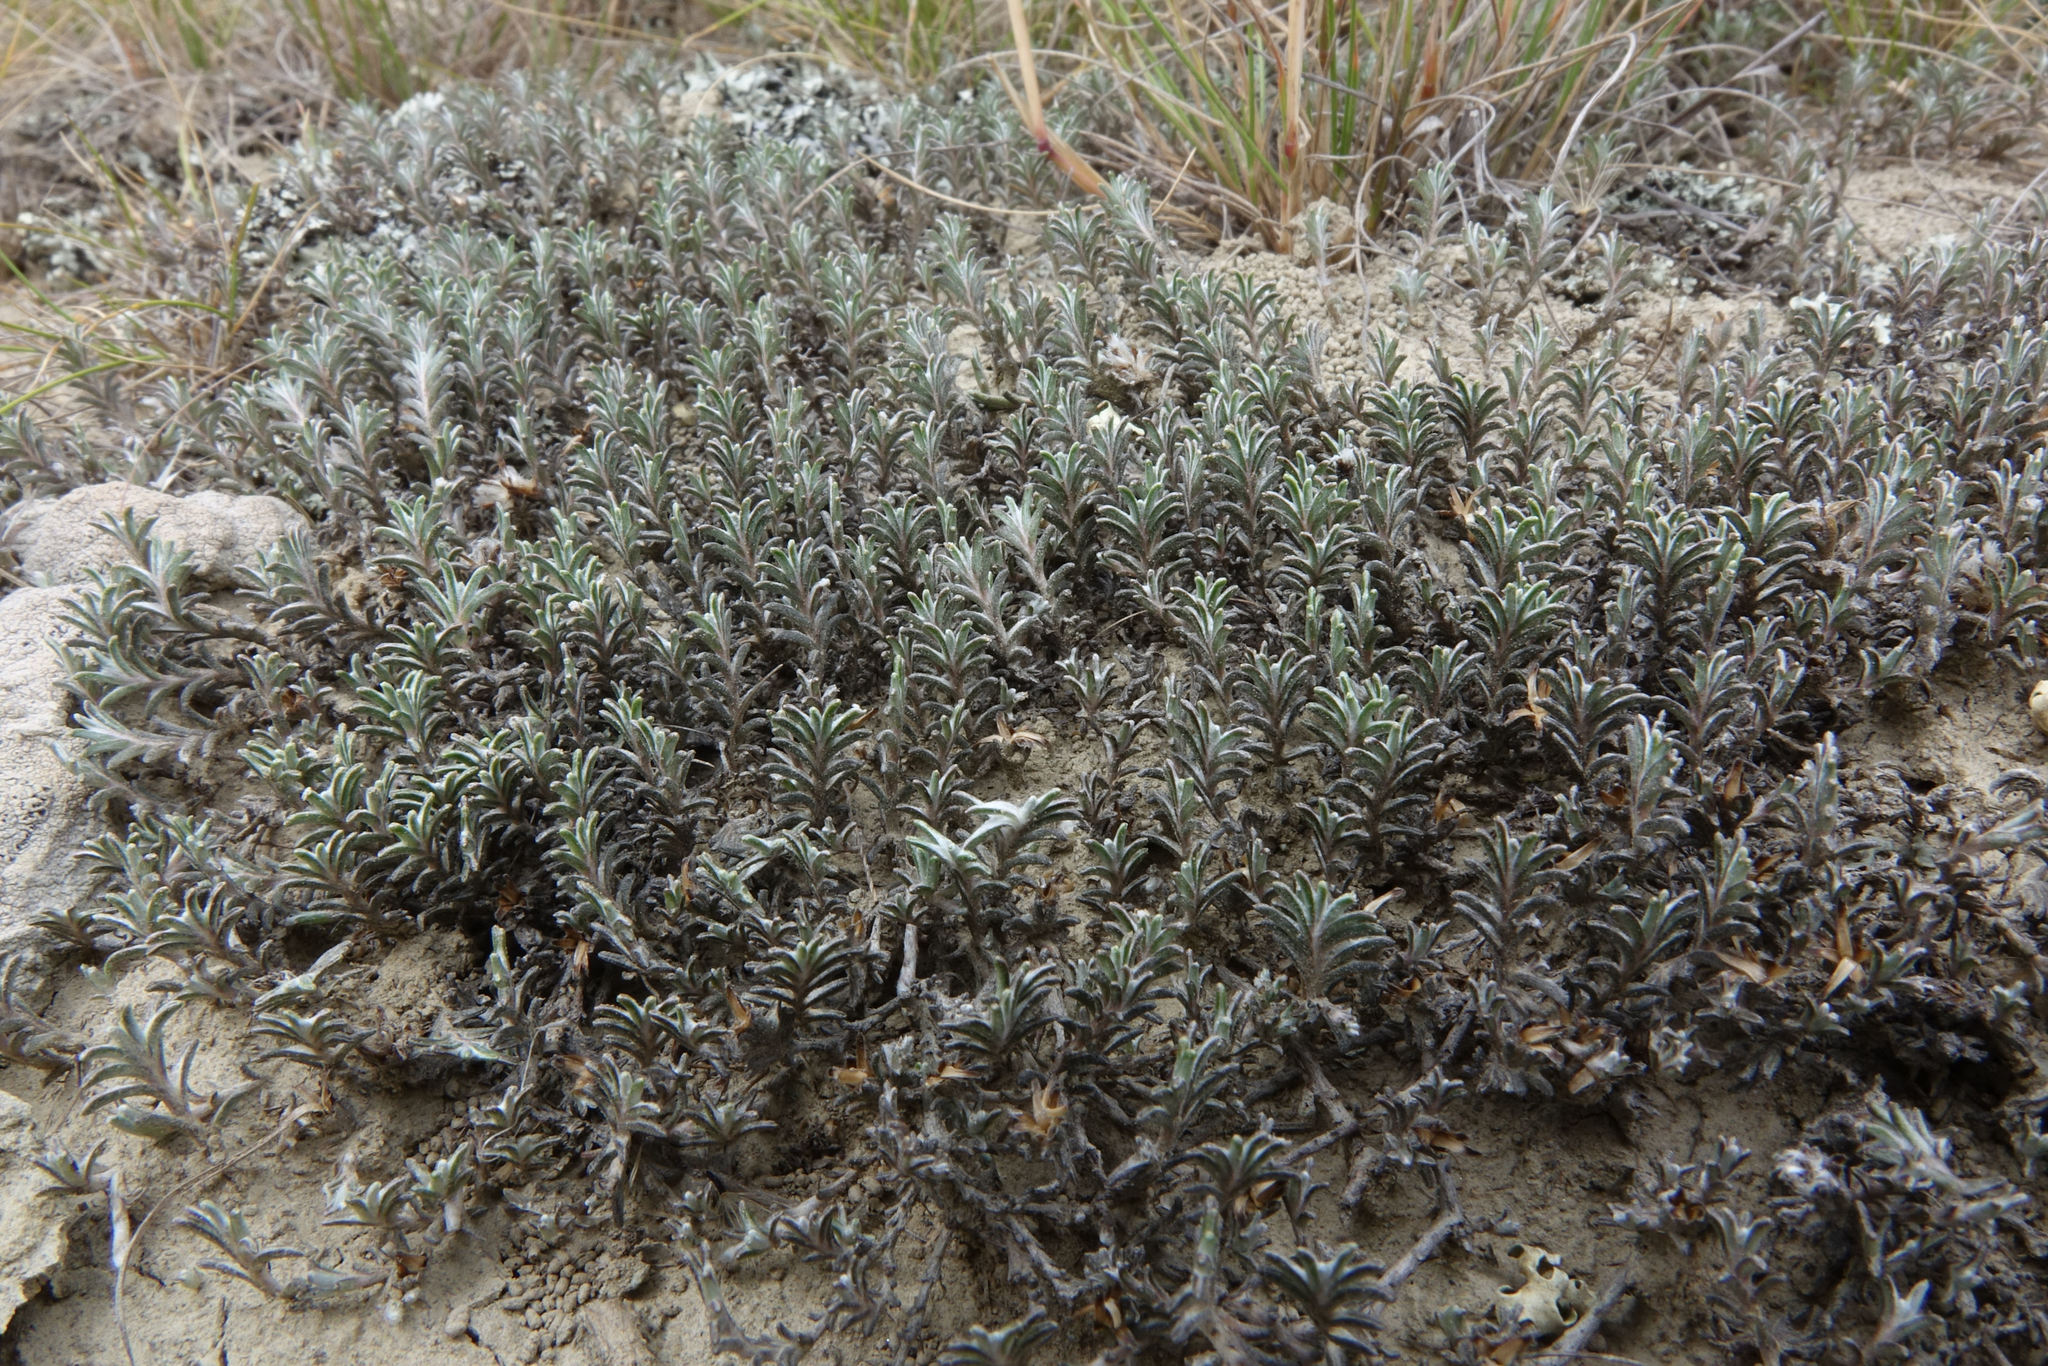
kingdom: Plantae
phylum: Tracheophyta
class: Magnoliopsida
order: Asterales
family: Asteraceae
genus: Raoulia
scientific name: Raoulia monroi
